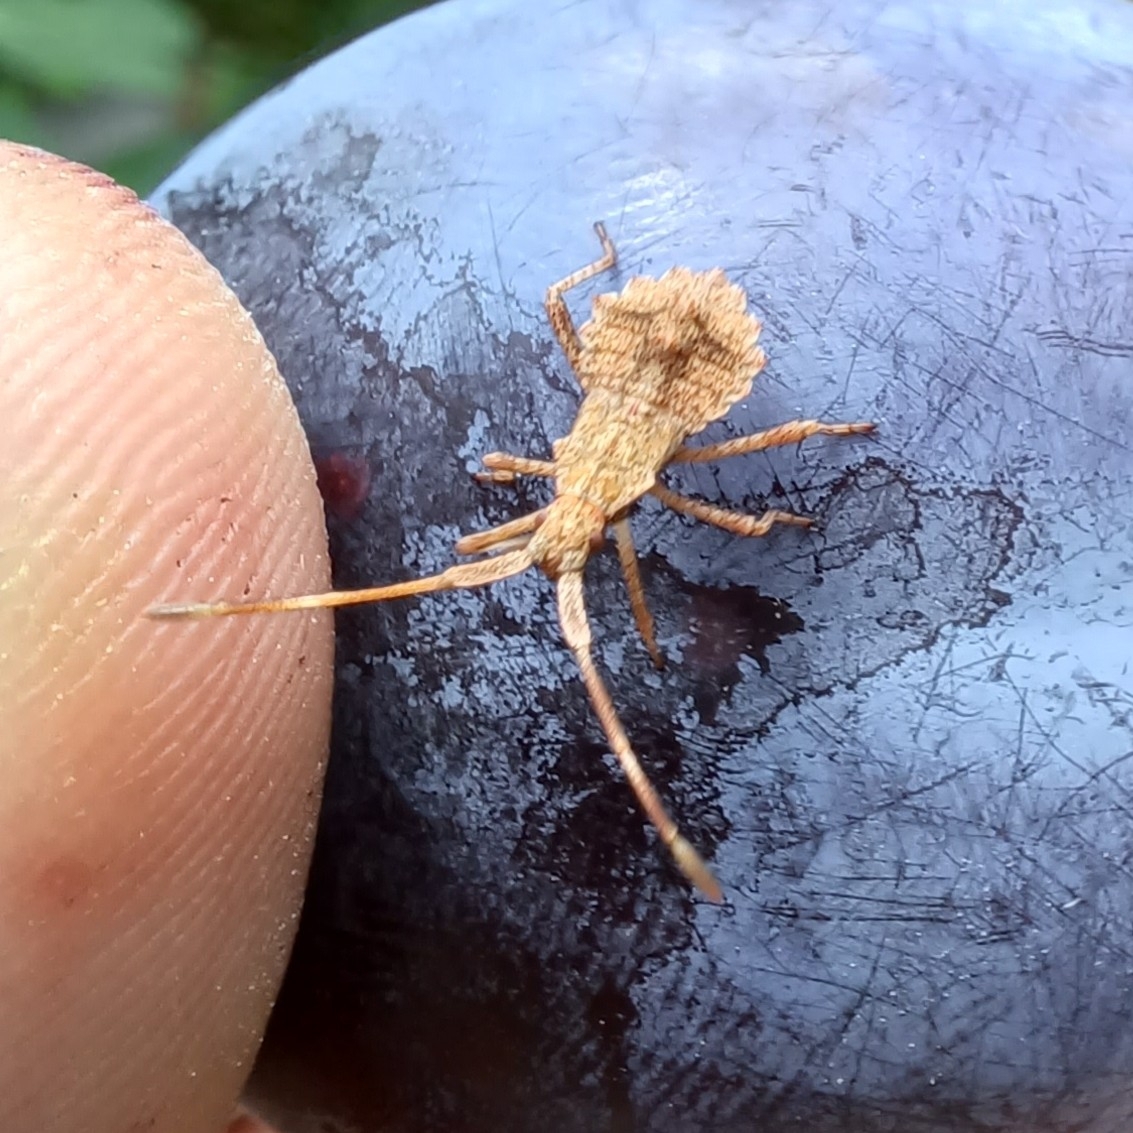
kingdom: Animalia
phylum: Arthropoda
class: Insecta
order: Hemiptera
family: Coreidae
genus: Coreus
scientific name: Coreus marginatus
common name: Dock bug
